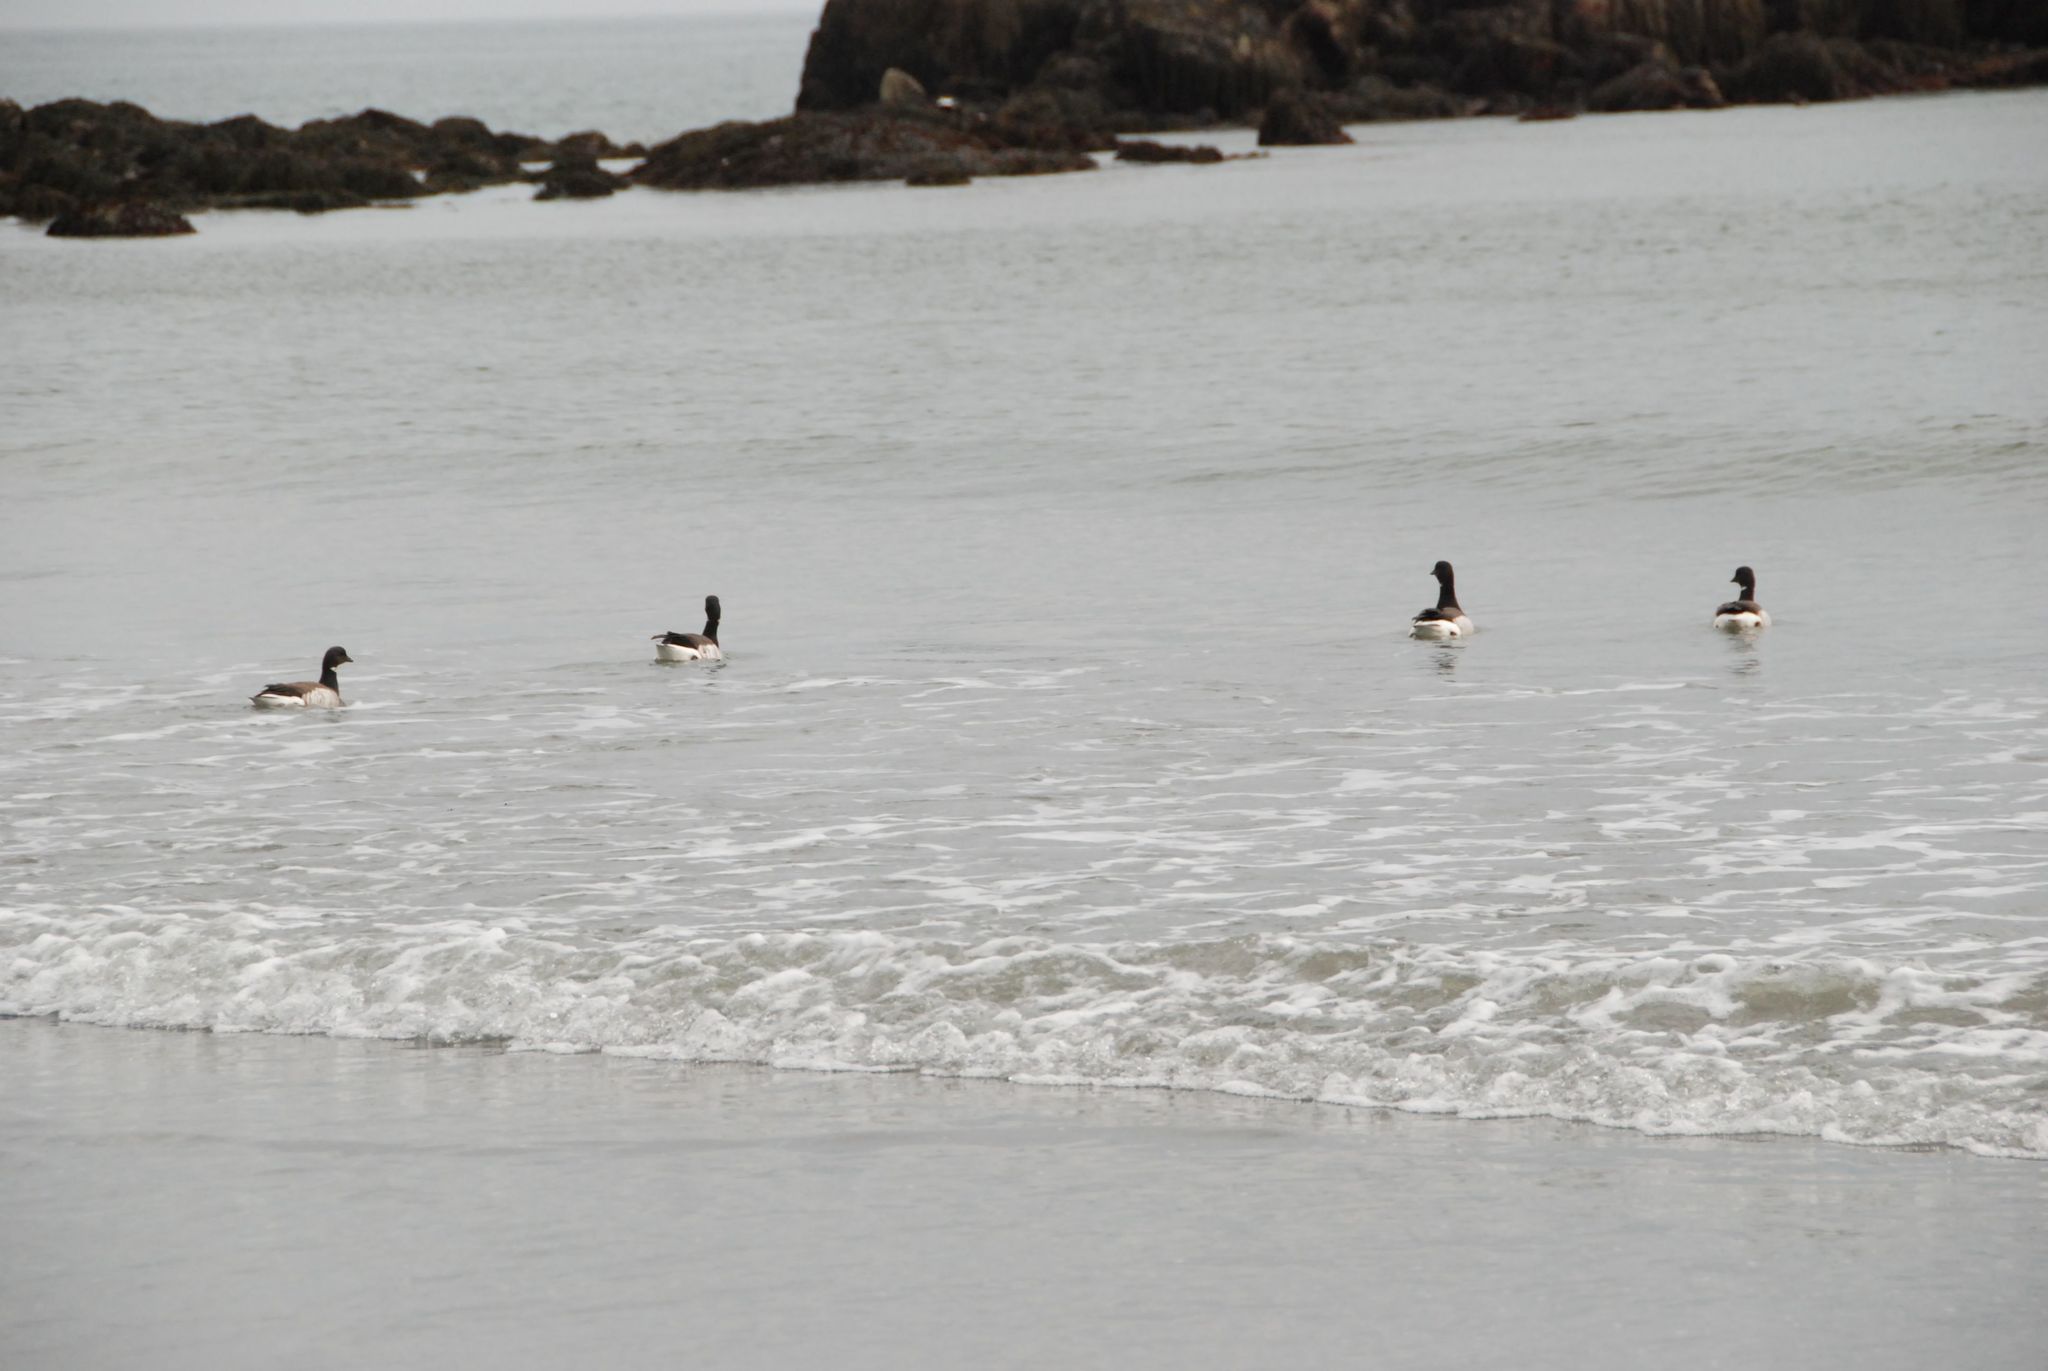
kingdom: Animalia
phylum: Chordata
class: Aves
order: Anseriformes
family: Anatidae
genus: Branta
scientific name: Branta bernicla
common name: Brant goose
